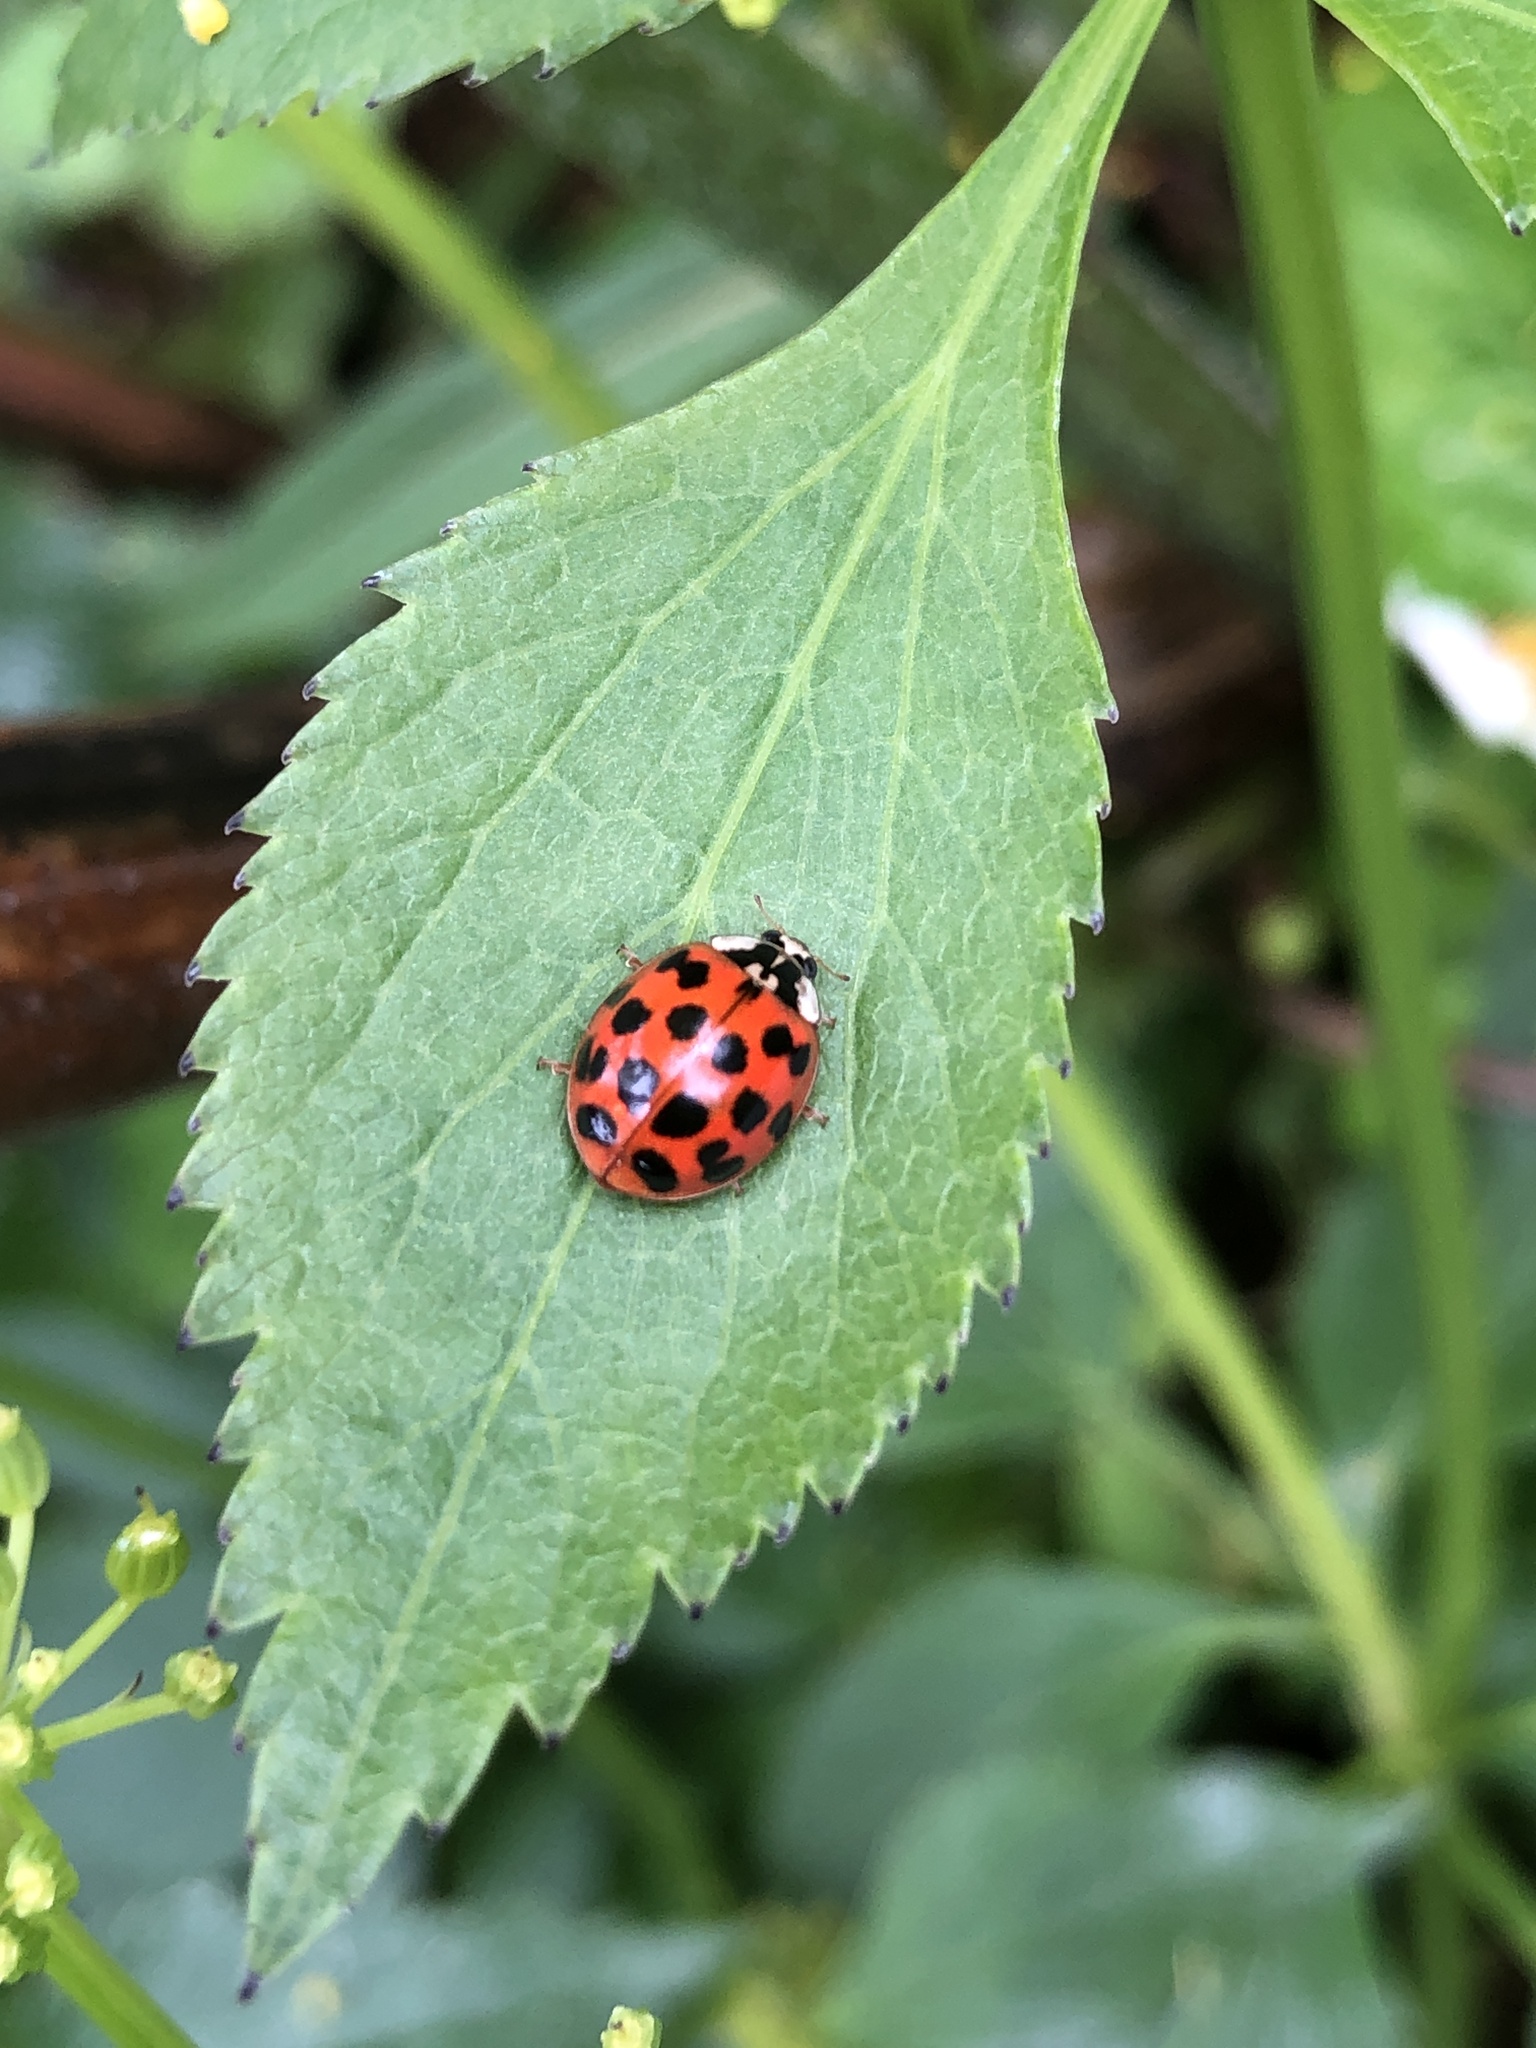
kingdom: Animalia
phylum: Arthropoda
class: Insecta
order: Coleoptera
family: Coccinellidae
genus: Harmonia
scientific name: Harmonia axyridis
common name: Harlequin ladybird
